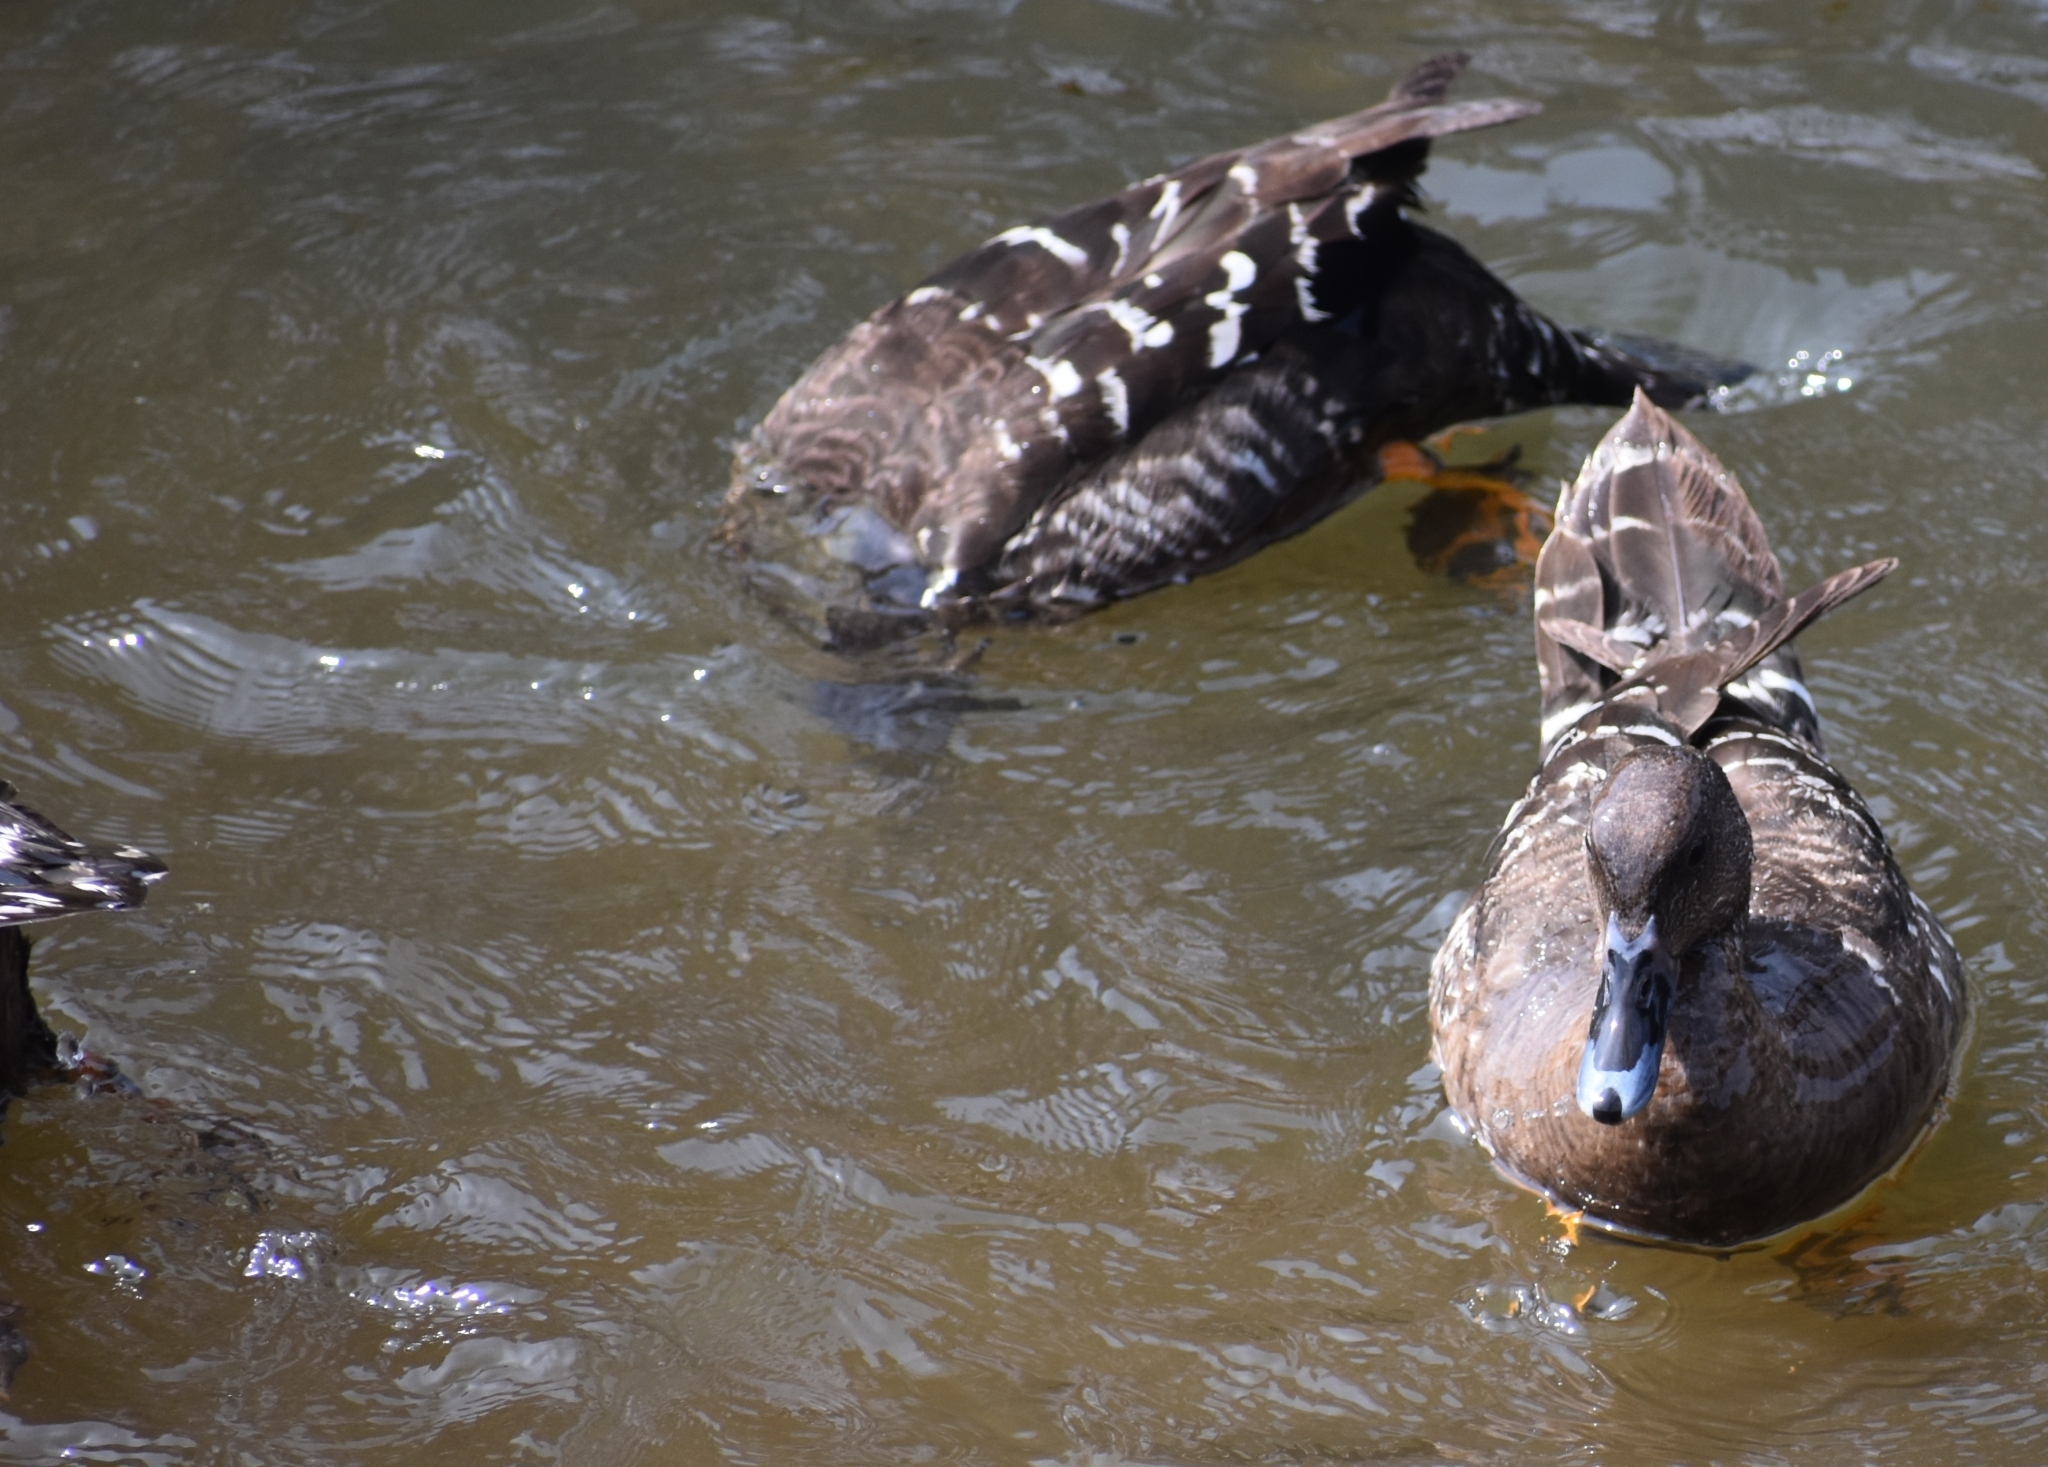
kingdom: Animalia
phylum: Chordata
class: Aves
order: Anseriformes
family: Anatidae
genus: Anas
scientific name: Anas sparsa
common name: African black duck
